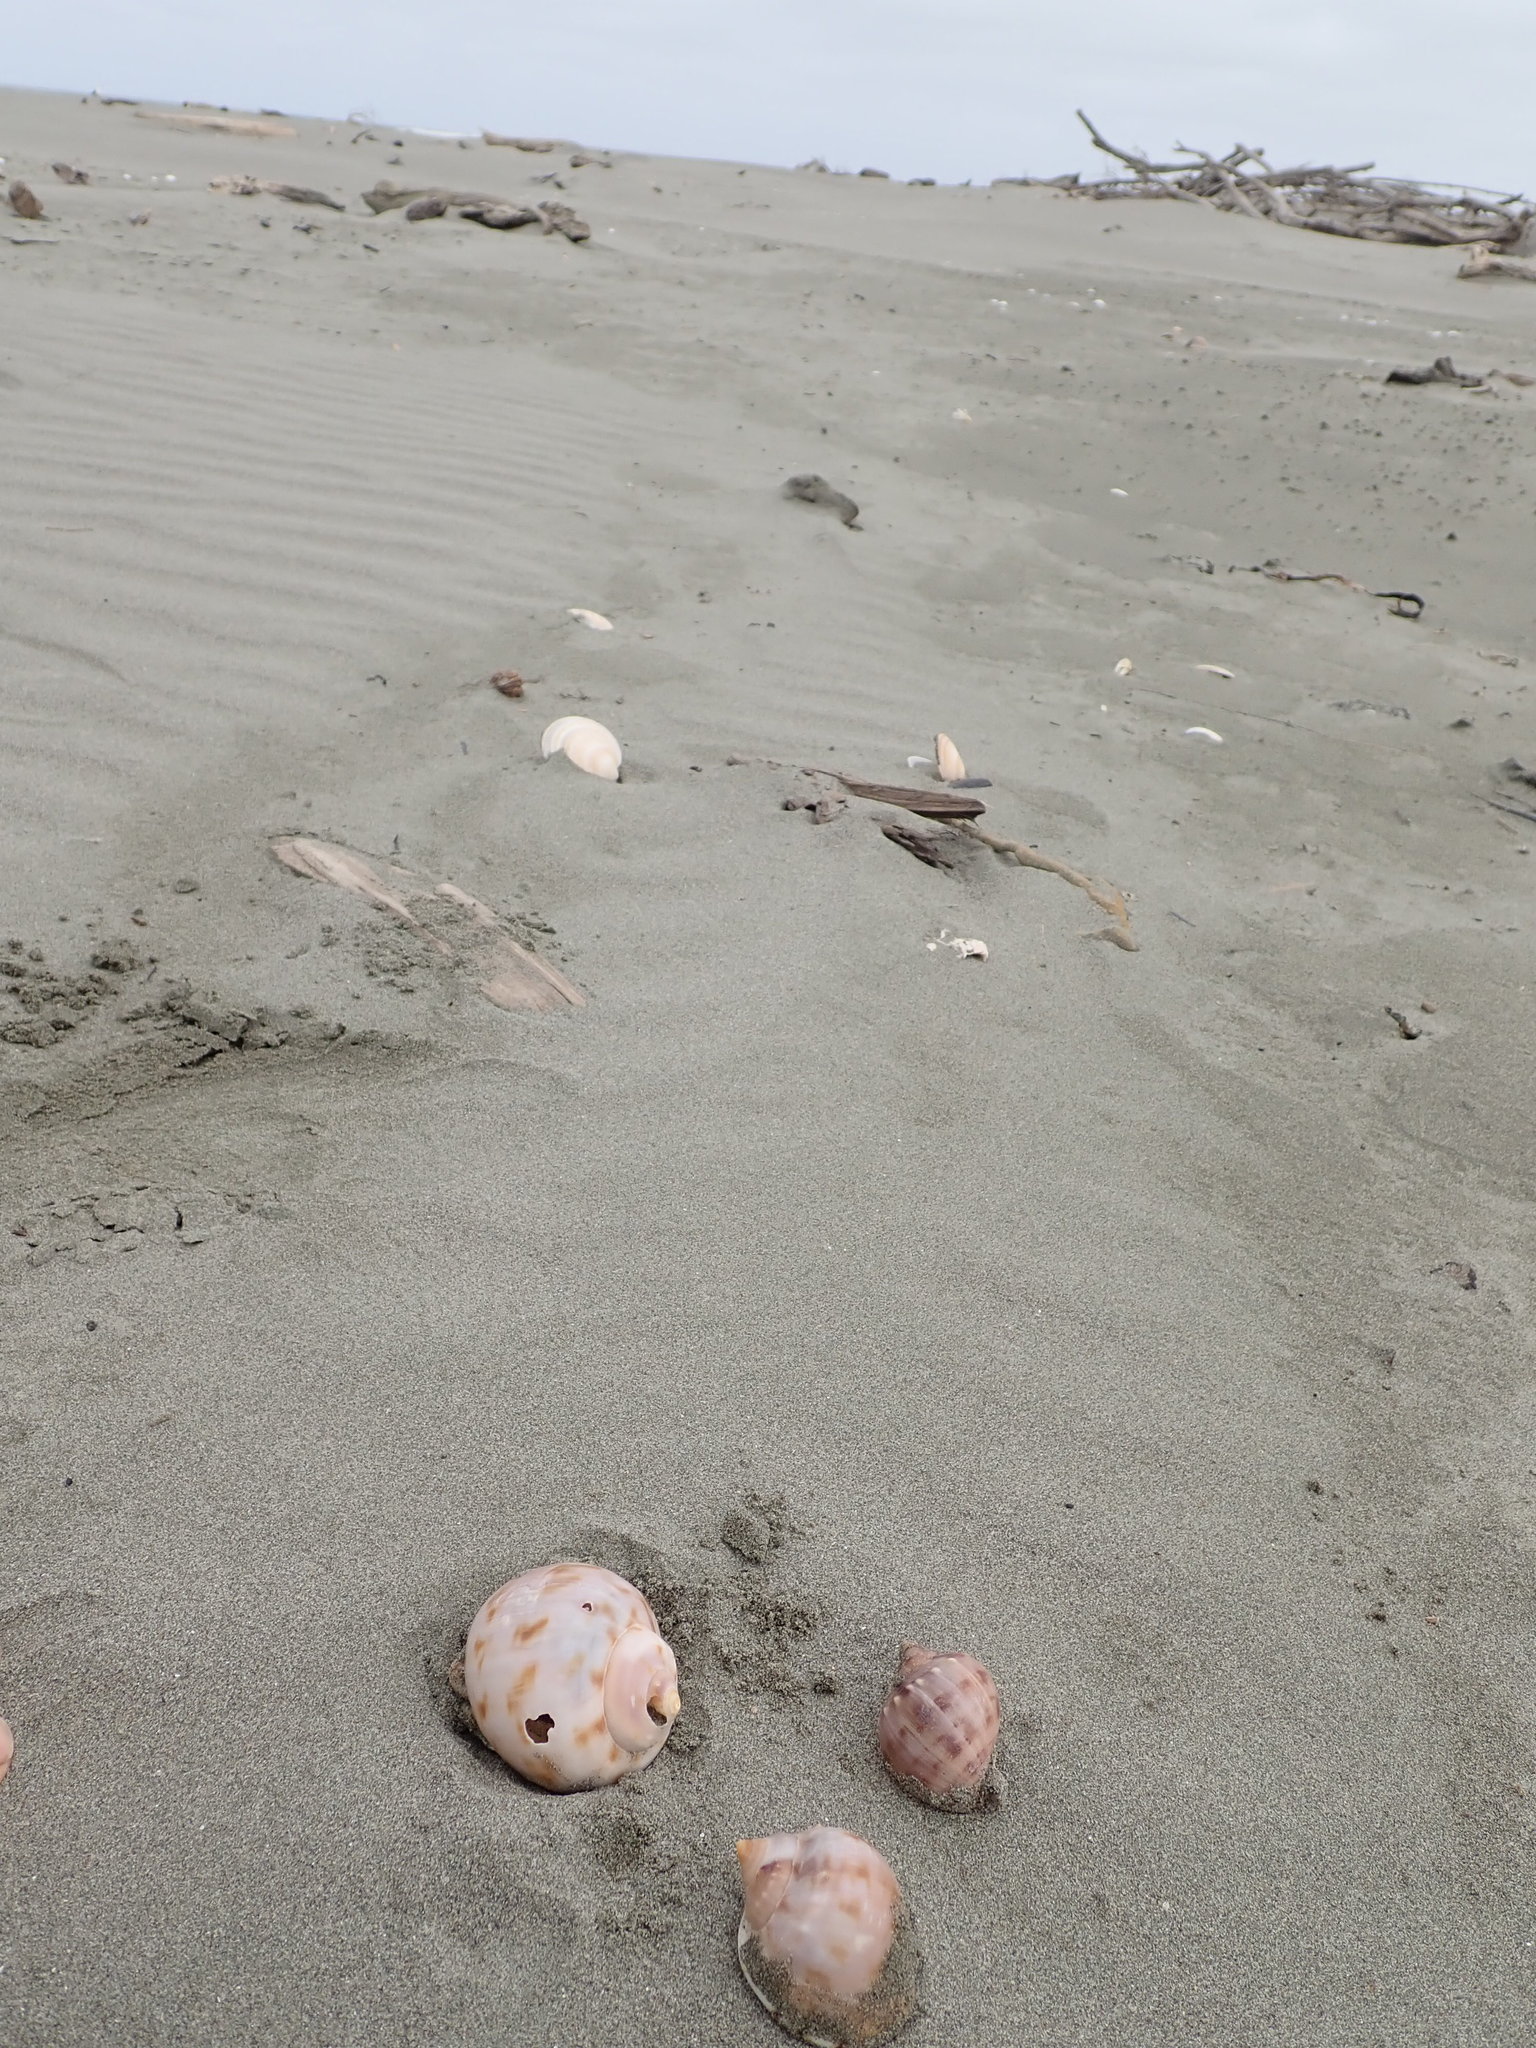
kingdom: Animalia
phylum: Mollusca
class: Gastropoda
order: Littorinimorpha
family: Cassidae
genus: Semicassis
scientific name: Semicassis pyrum
